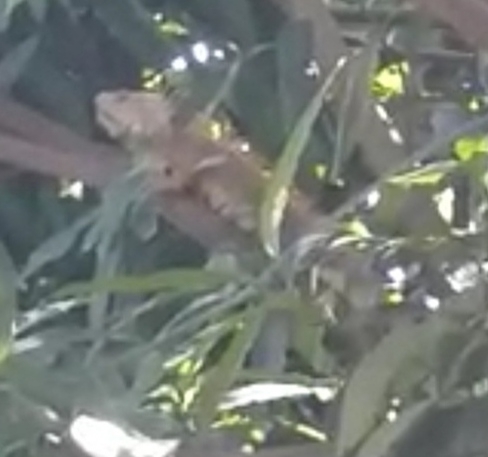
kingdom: Animalia
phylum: Chordata
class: Squamata
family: Iguanidae
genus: Iguana
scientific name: Iguana iguana
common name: Green iguana
